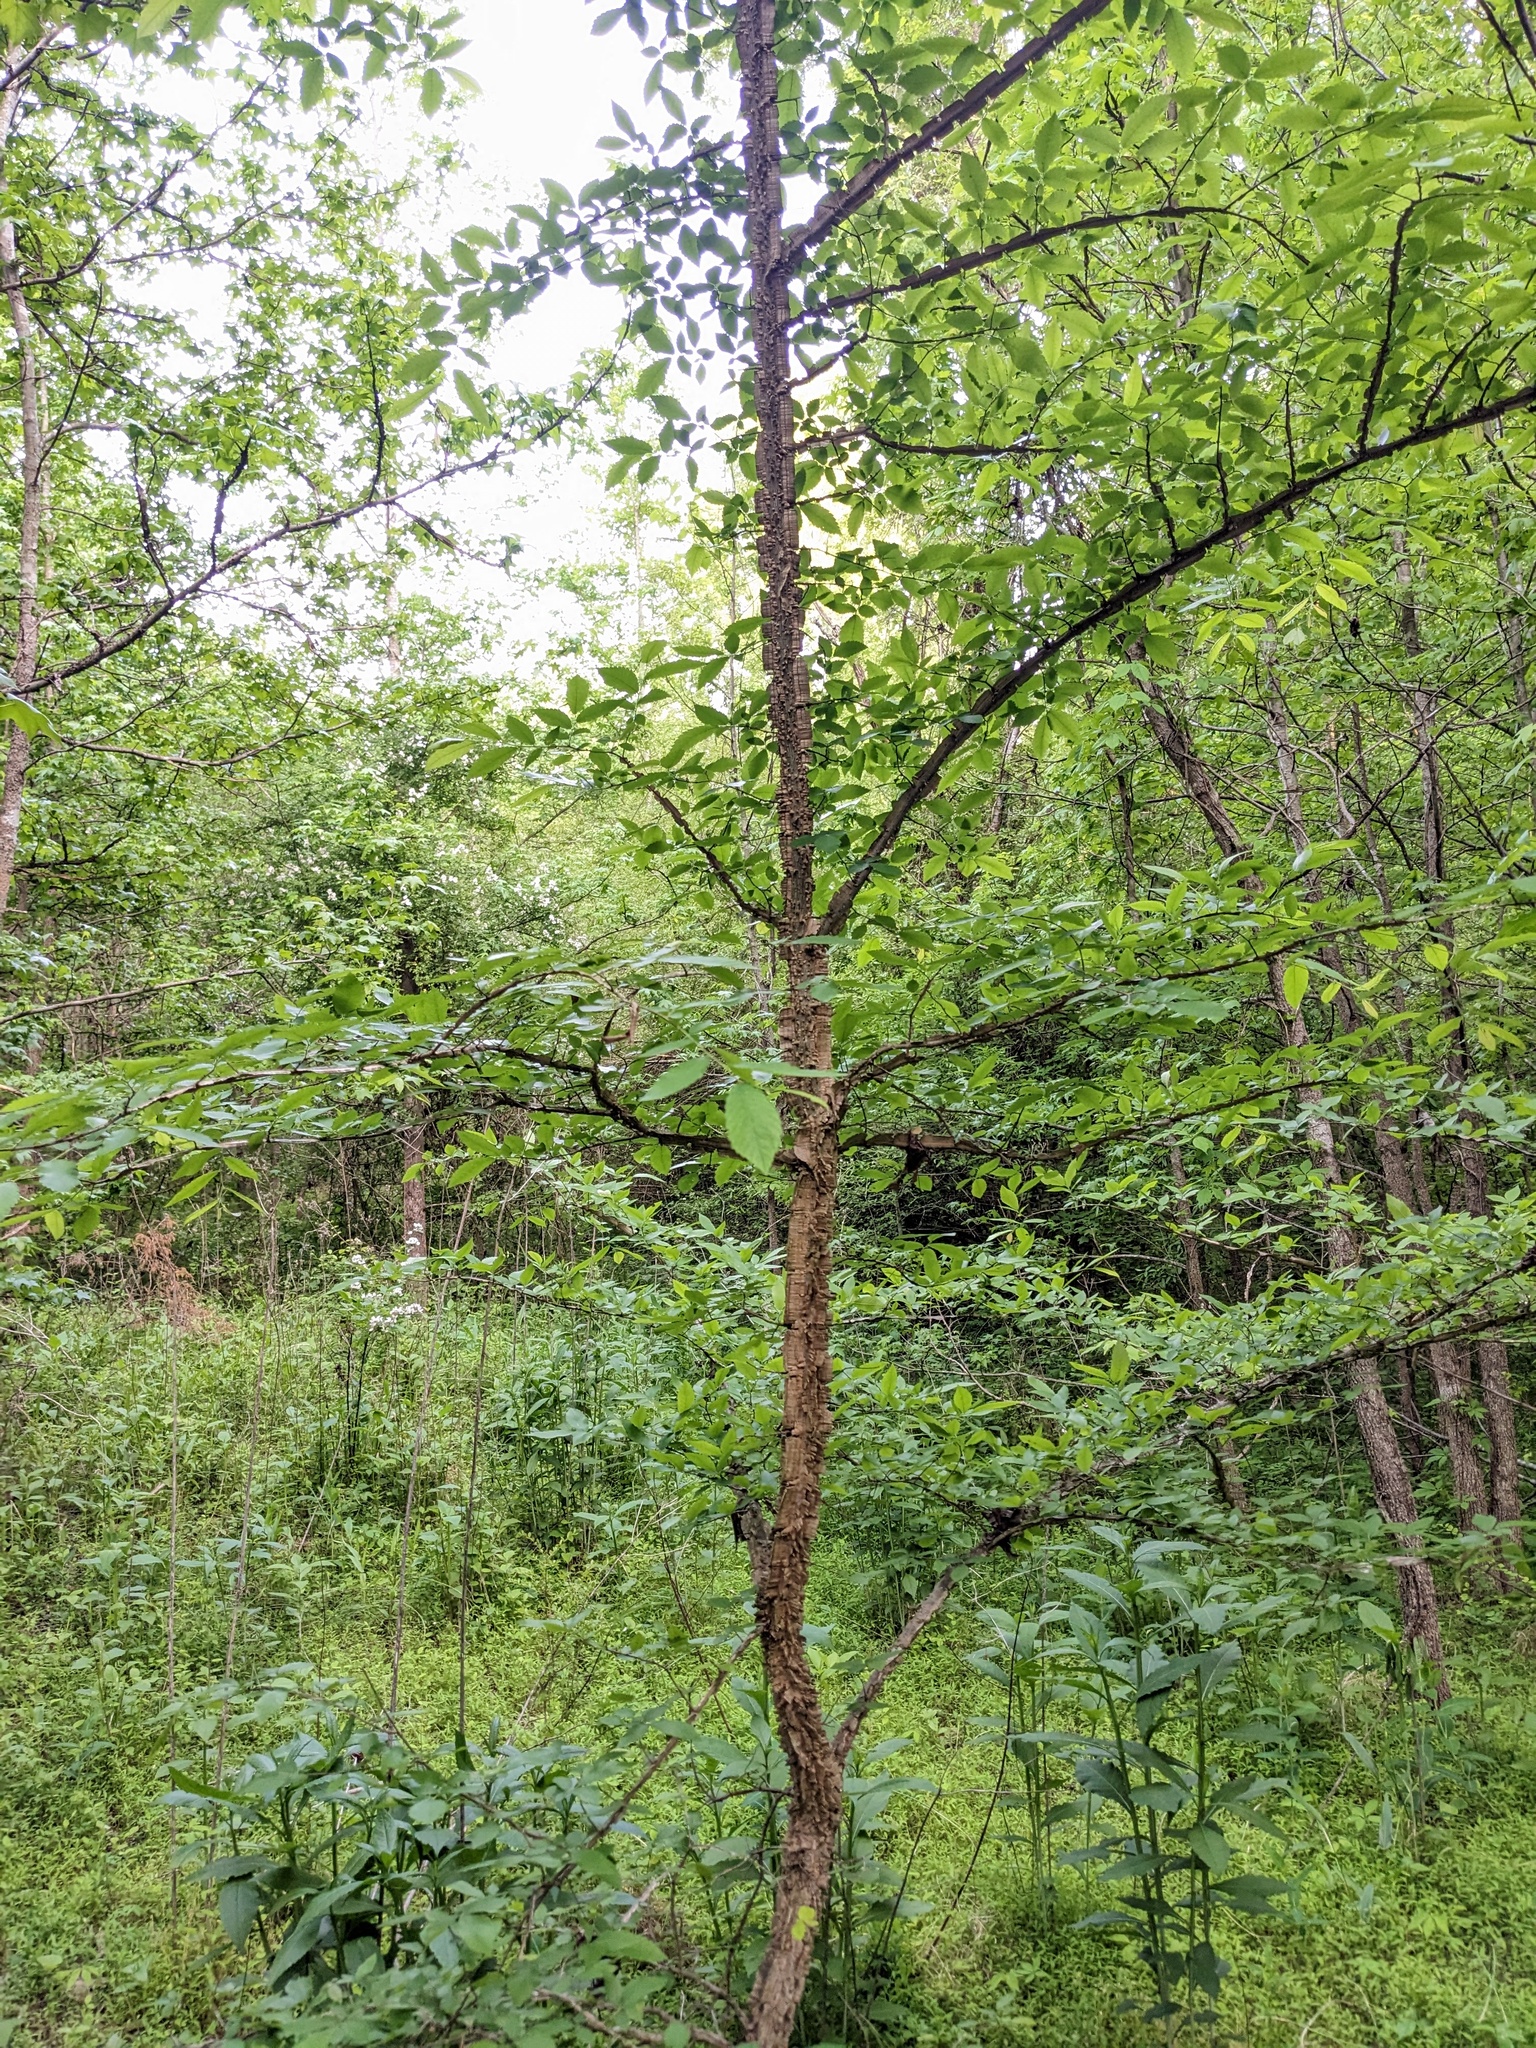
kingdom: Plantae
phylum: Tracheophyta
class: Magnoliopsida
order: Rosales
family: Ulmaceae
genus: Ulmus
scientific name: Ulmus alata
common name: Winged elm
